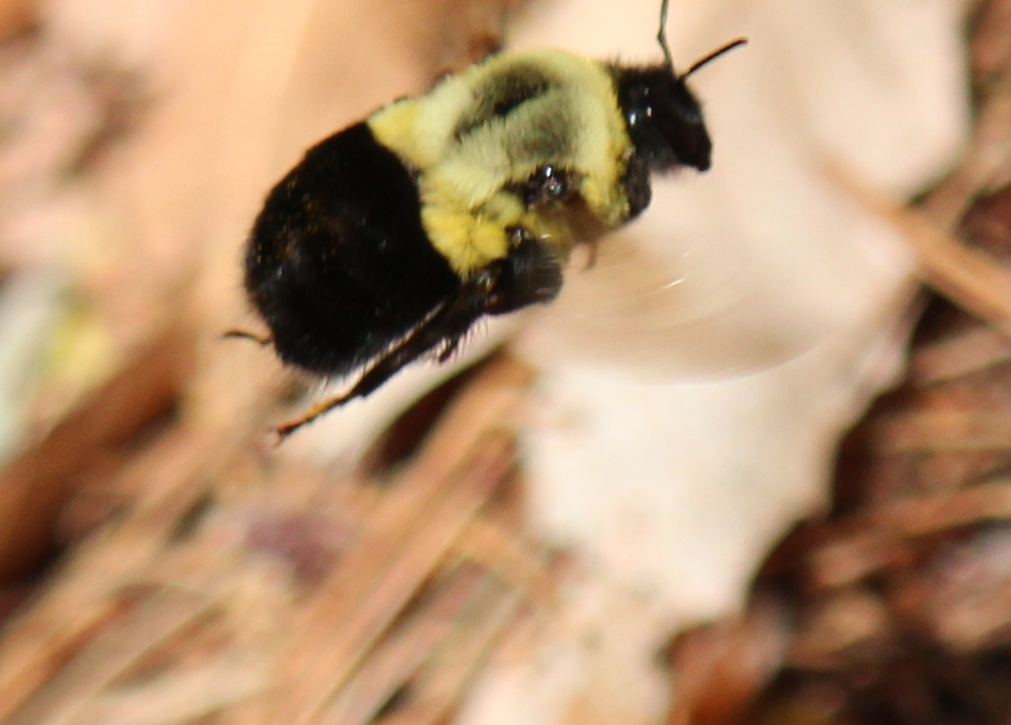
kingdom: Animalia
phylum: Arthropoda
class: Insecta
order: Hymenoptera
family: Apidae
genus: Bombus
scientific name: Bombus impatiens
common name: Common eastern bumble bee
